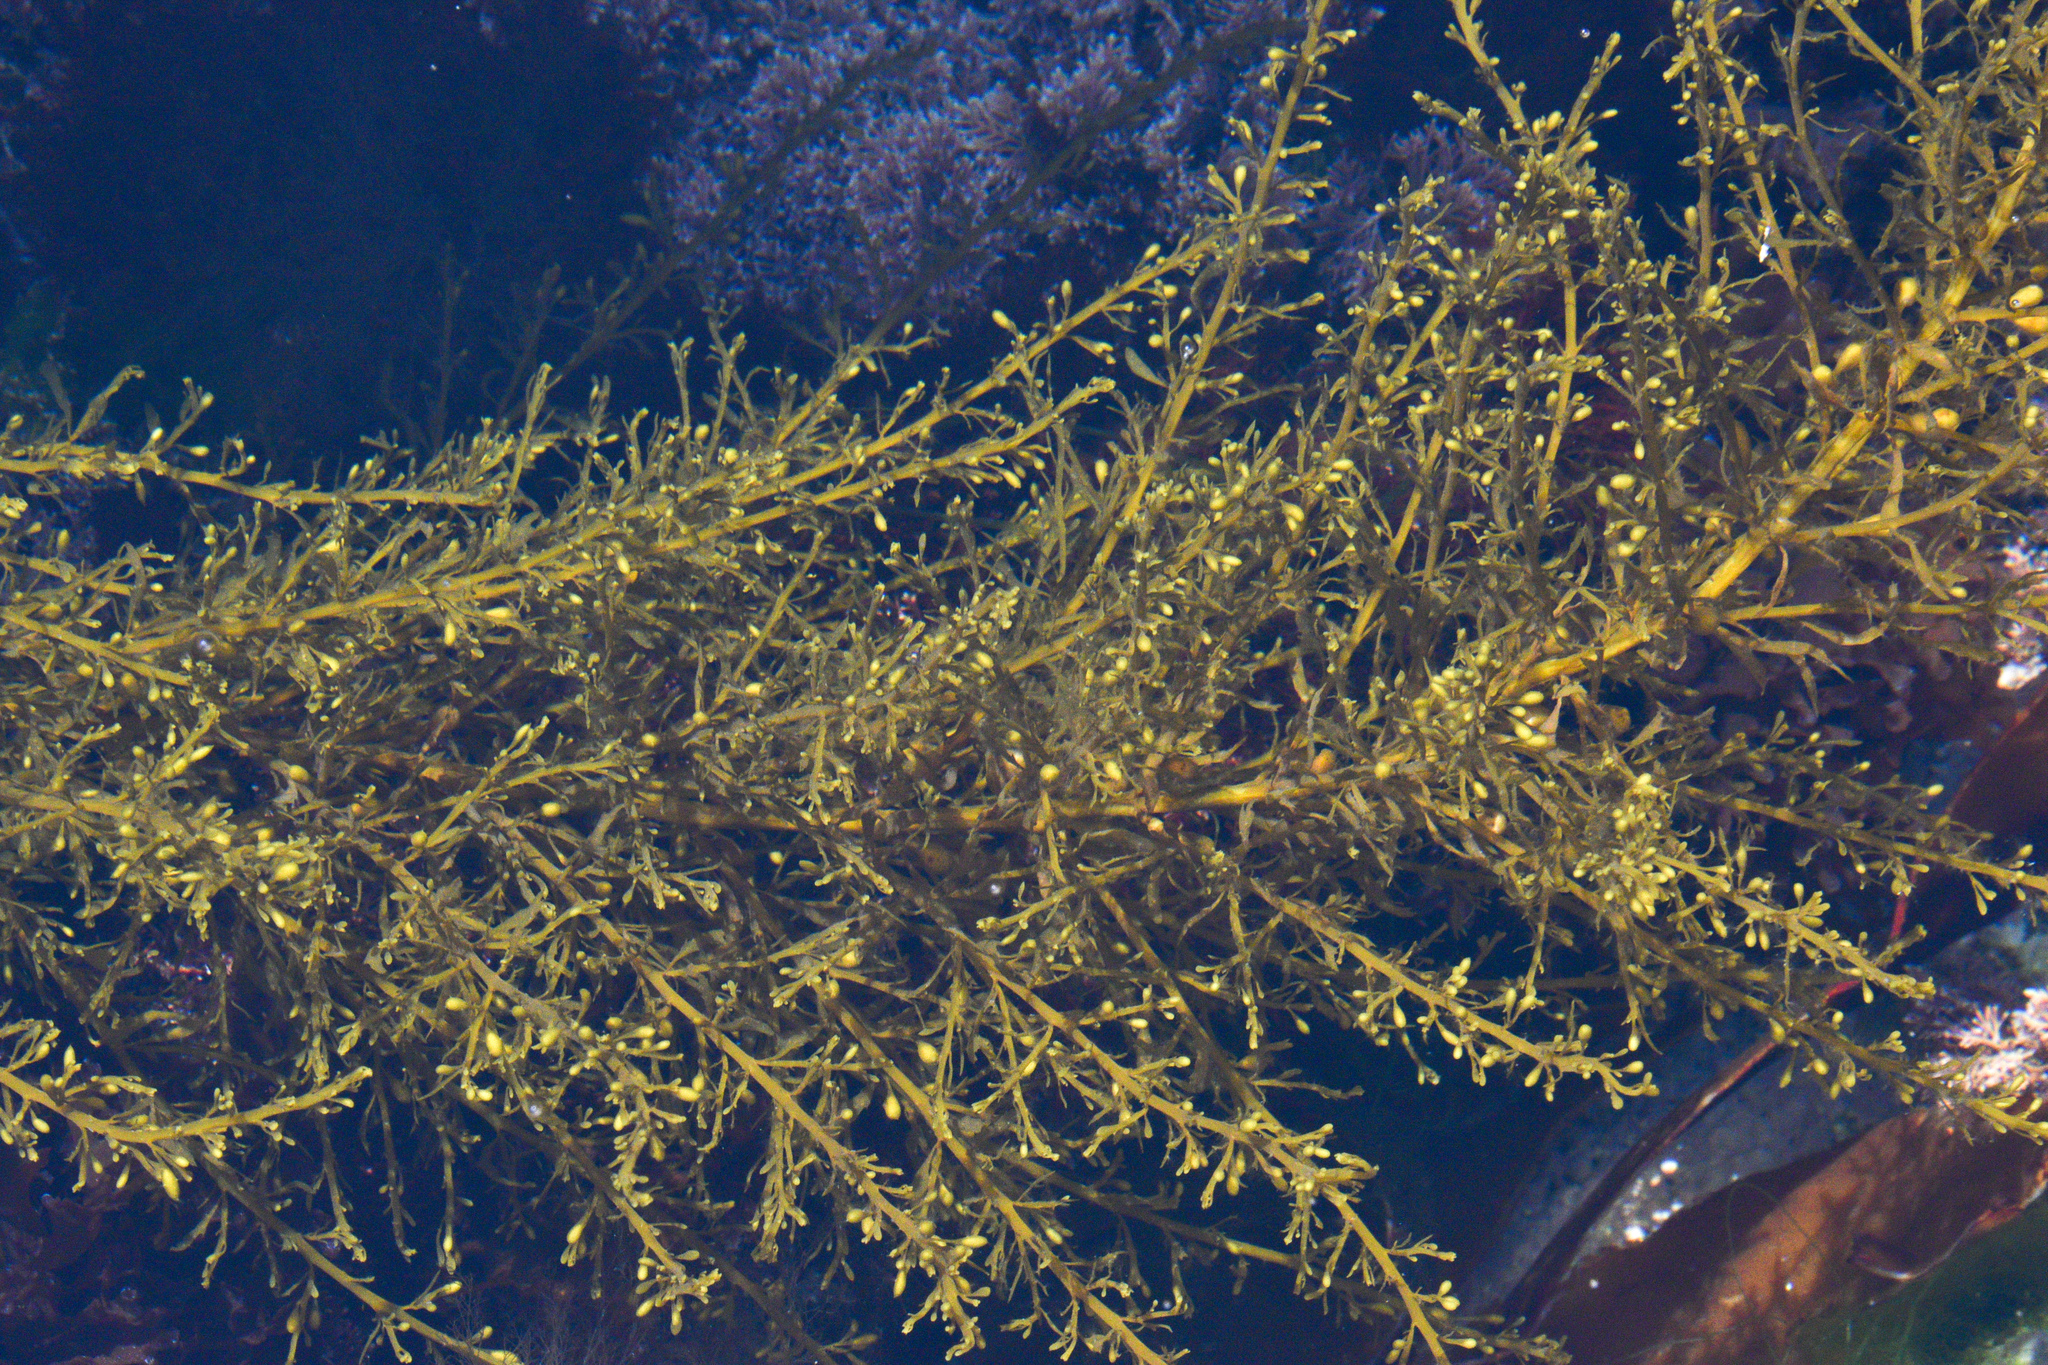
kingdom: Chromista
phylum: Ochrophyta
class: Phaeophyceae
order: Fucales
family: Sargassaceae
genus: Sargassum
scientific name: Sargassum muticum
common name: Japweed
